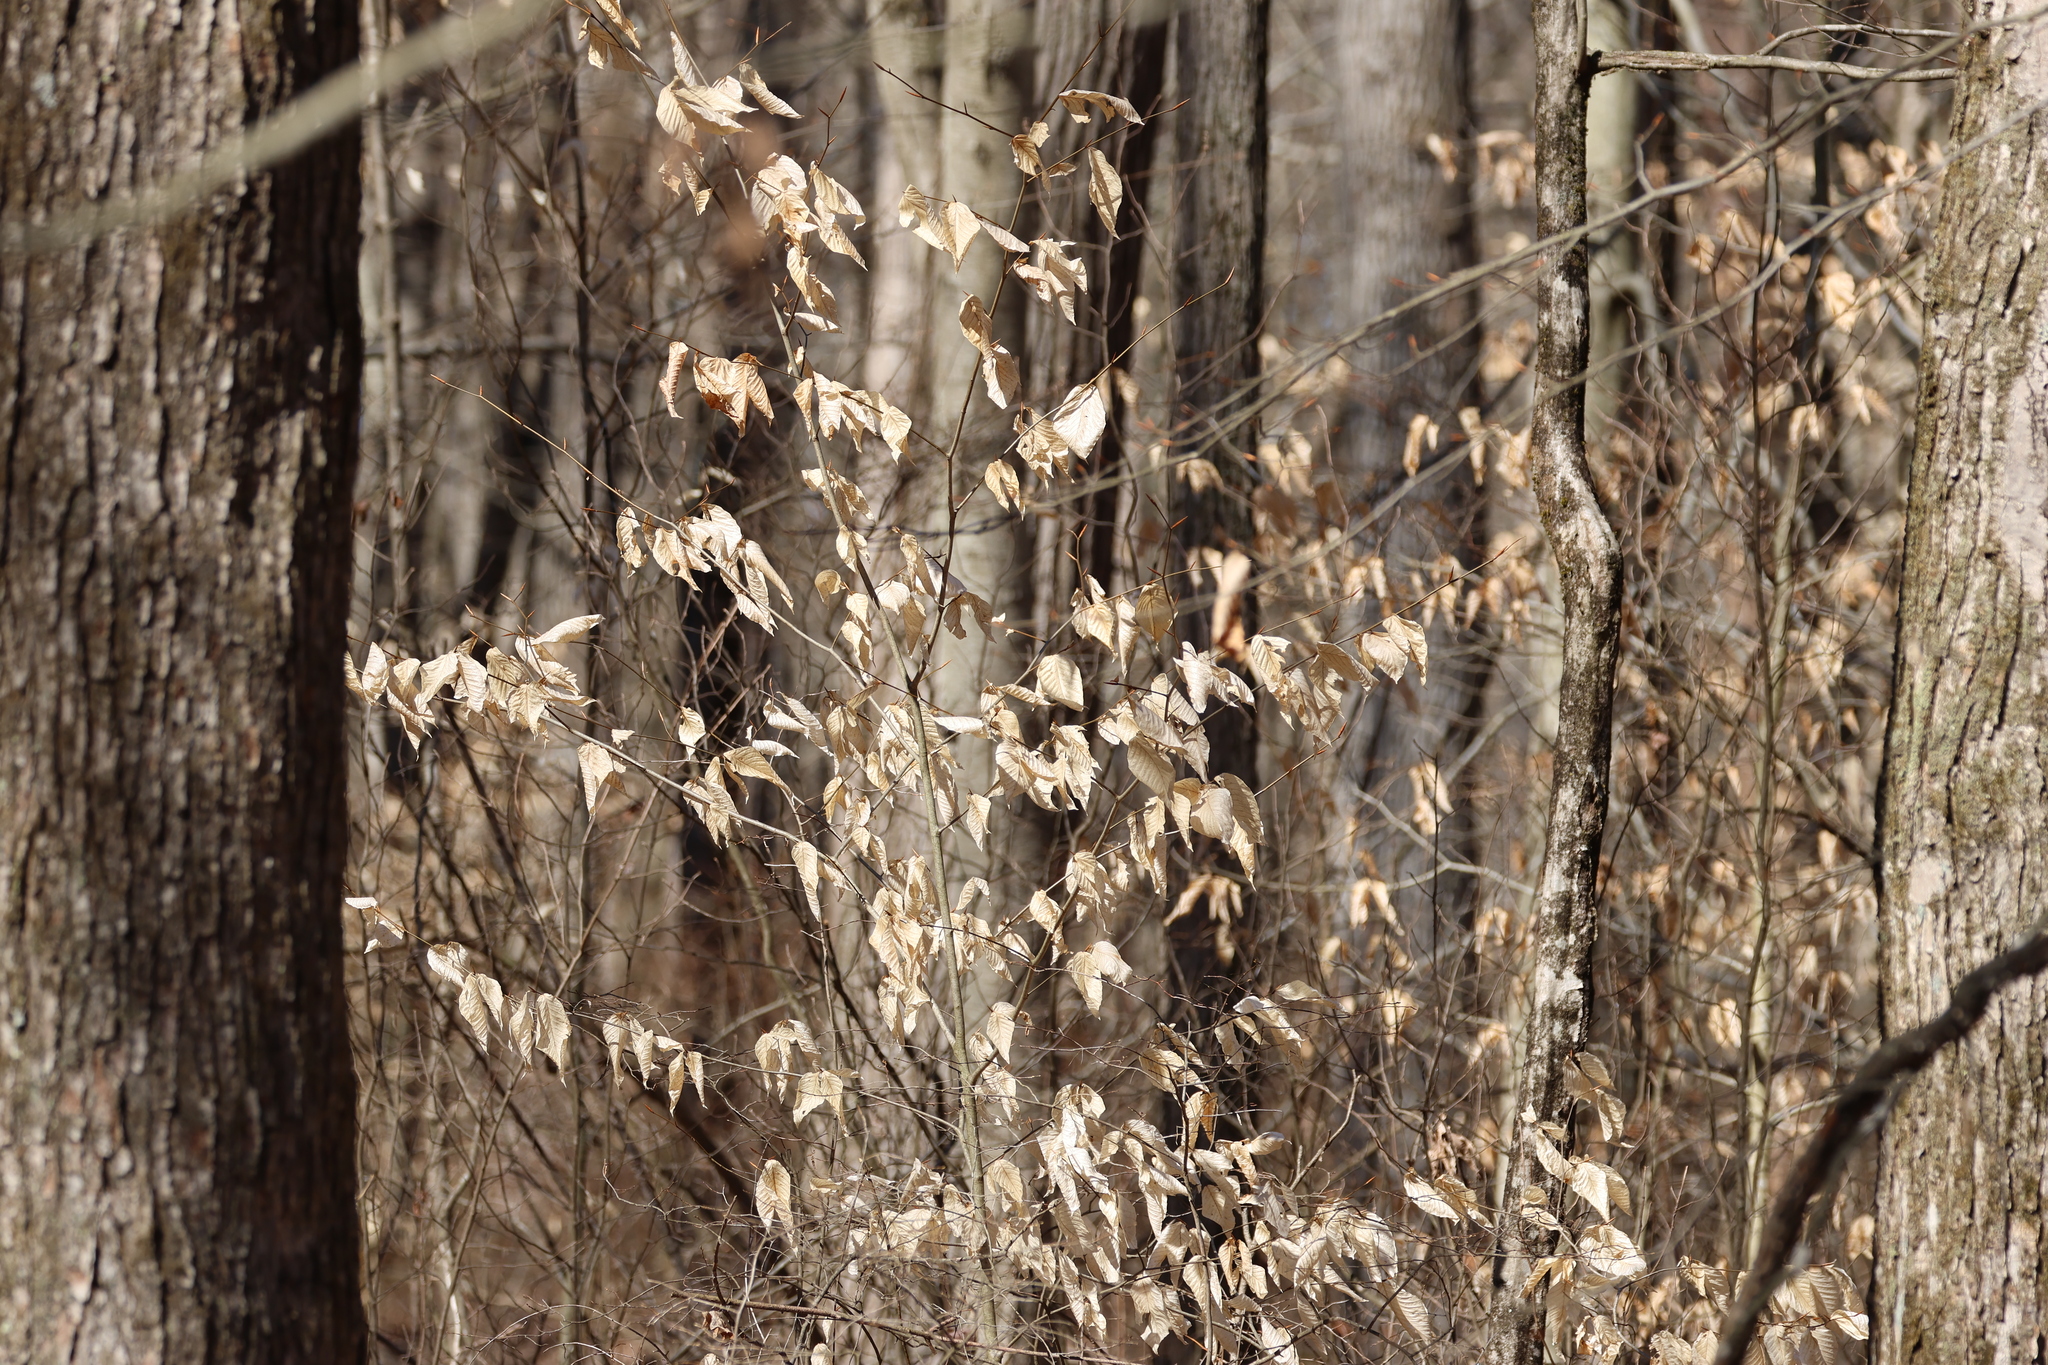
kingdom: Plantae
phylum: Tracheophyta
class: Magnoliopsida
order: Fagales
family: Fagaceae
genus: Fagus
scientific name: Fagus grandifolia
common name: American beech
